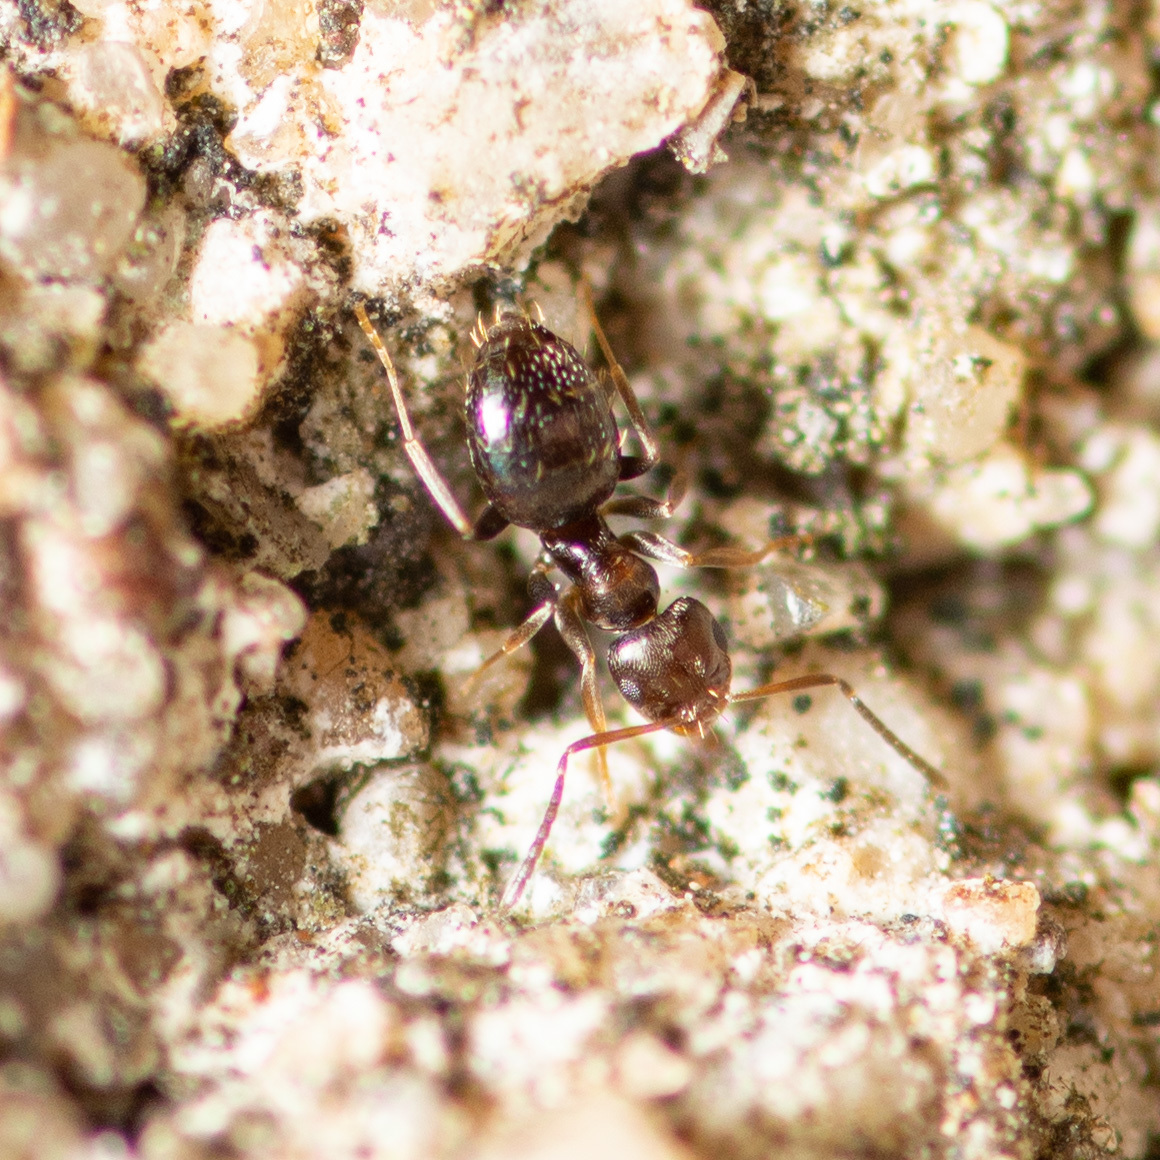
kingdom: Animalia
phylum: Arthropoda
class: Insecta
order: Hymenoptera
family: Formicidae
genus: Brachymyrmex
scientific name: Brachymyrmex patagonicus
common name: Dark rover ant
